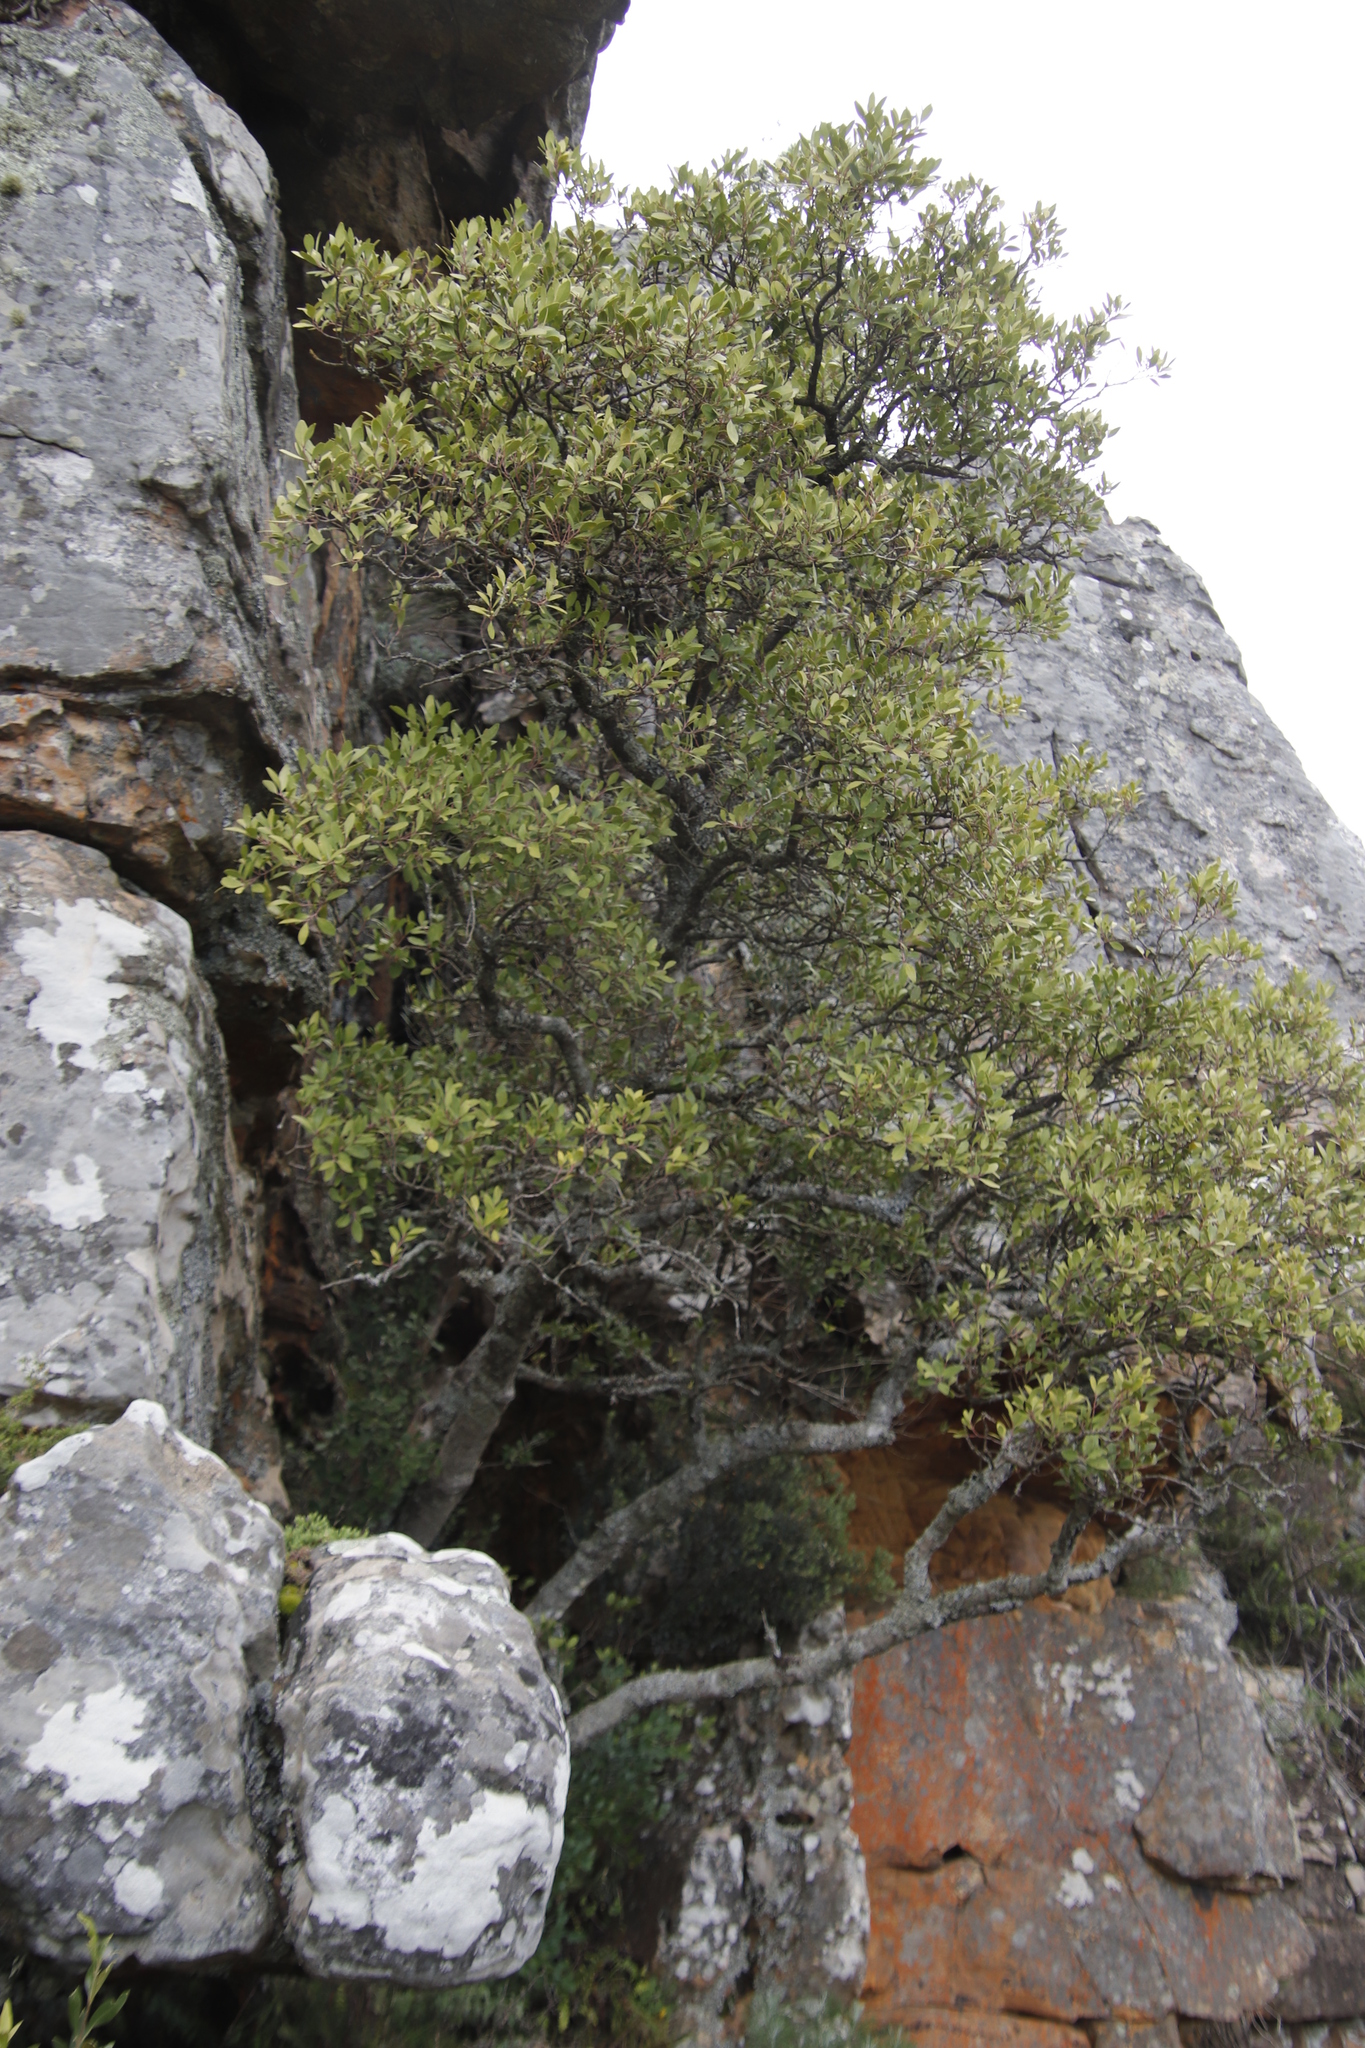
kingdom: Plantae
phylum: Tracheophyta
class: Magnoliopsida
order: Celastrales
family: Celastraceae
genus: Pterocelastrus
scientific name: Pterocelastrus tricuspidatus
